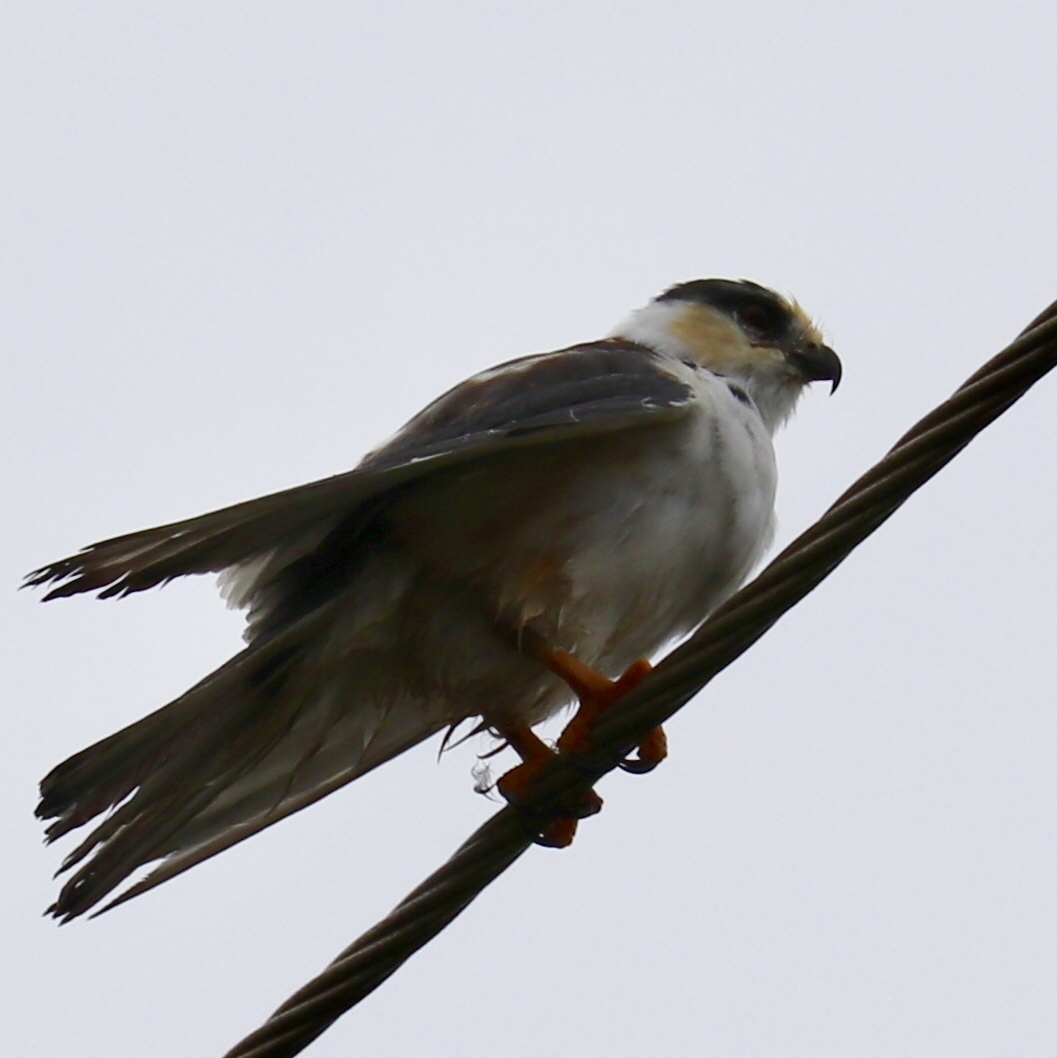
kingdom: Animalia
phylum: Chordata
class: Aves
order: Accipitriformes
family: Accipitridae
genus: Gampsonyx
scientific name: Gampsonyx swainsonii
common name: Pearl kite
